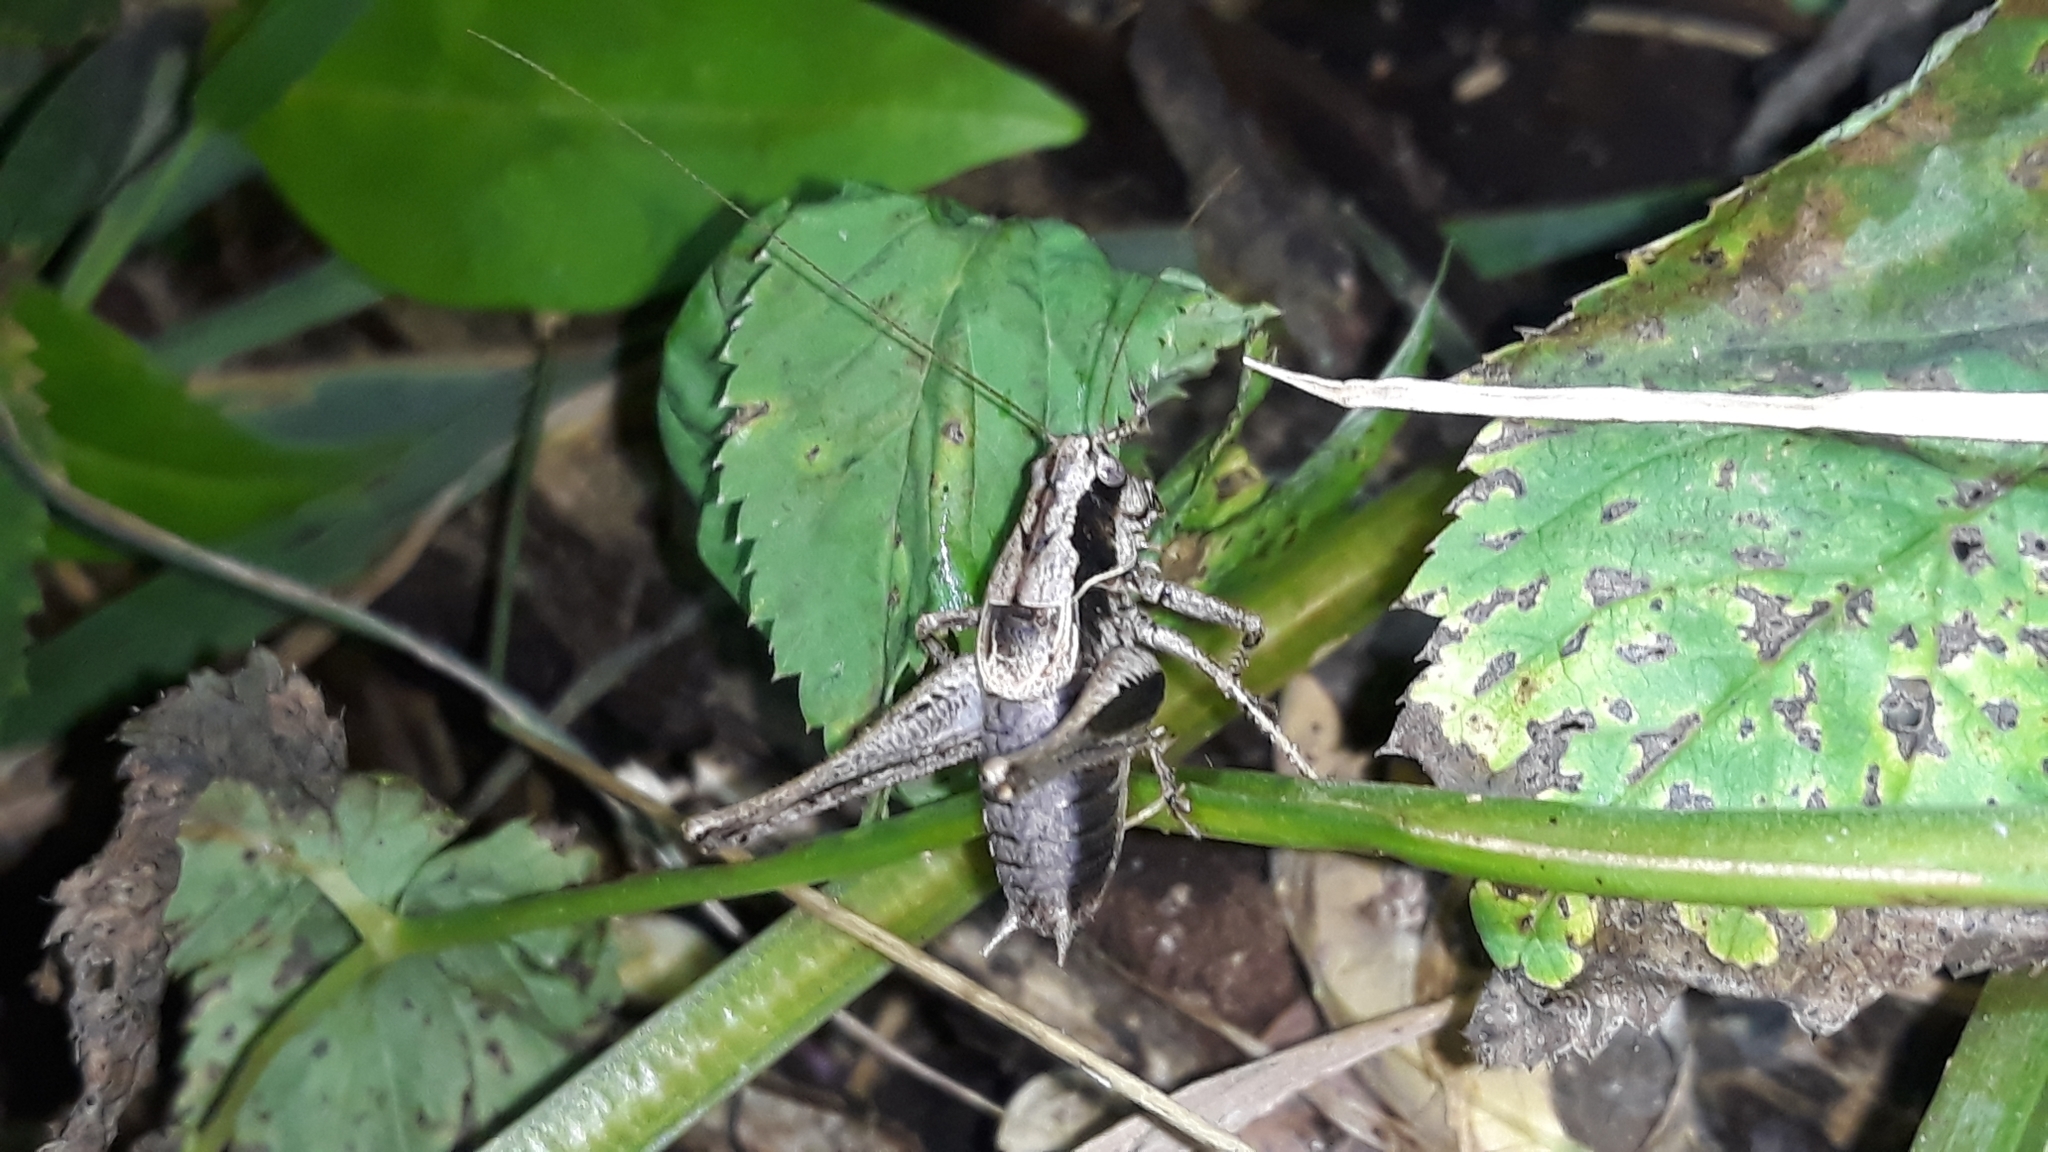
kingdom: Animalia
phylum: Arthropoda
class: Insecta
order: Orthoptera
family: Tettigoniidae
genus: Pholidoptera
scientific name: Pholidoptera griseoaptera
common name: Dark bush-cricket
